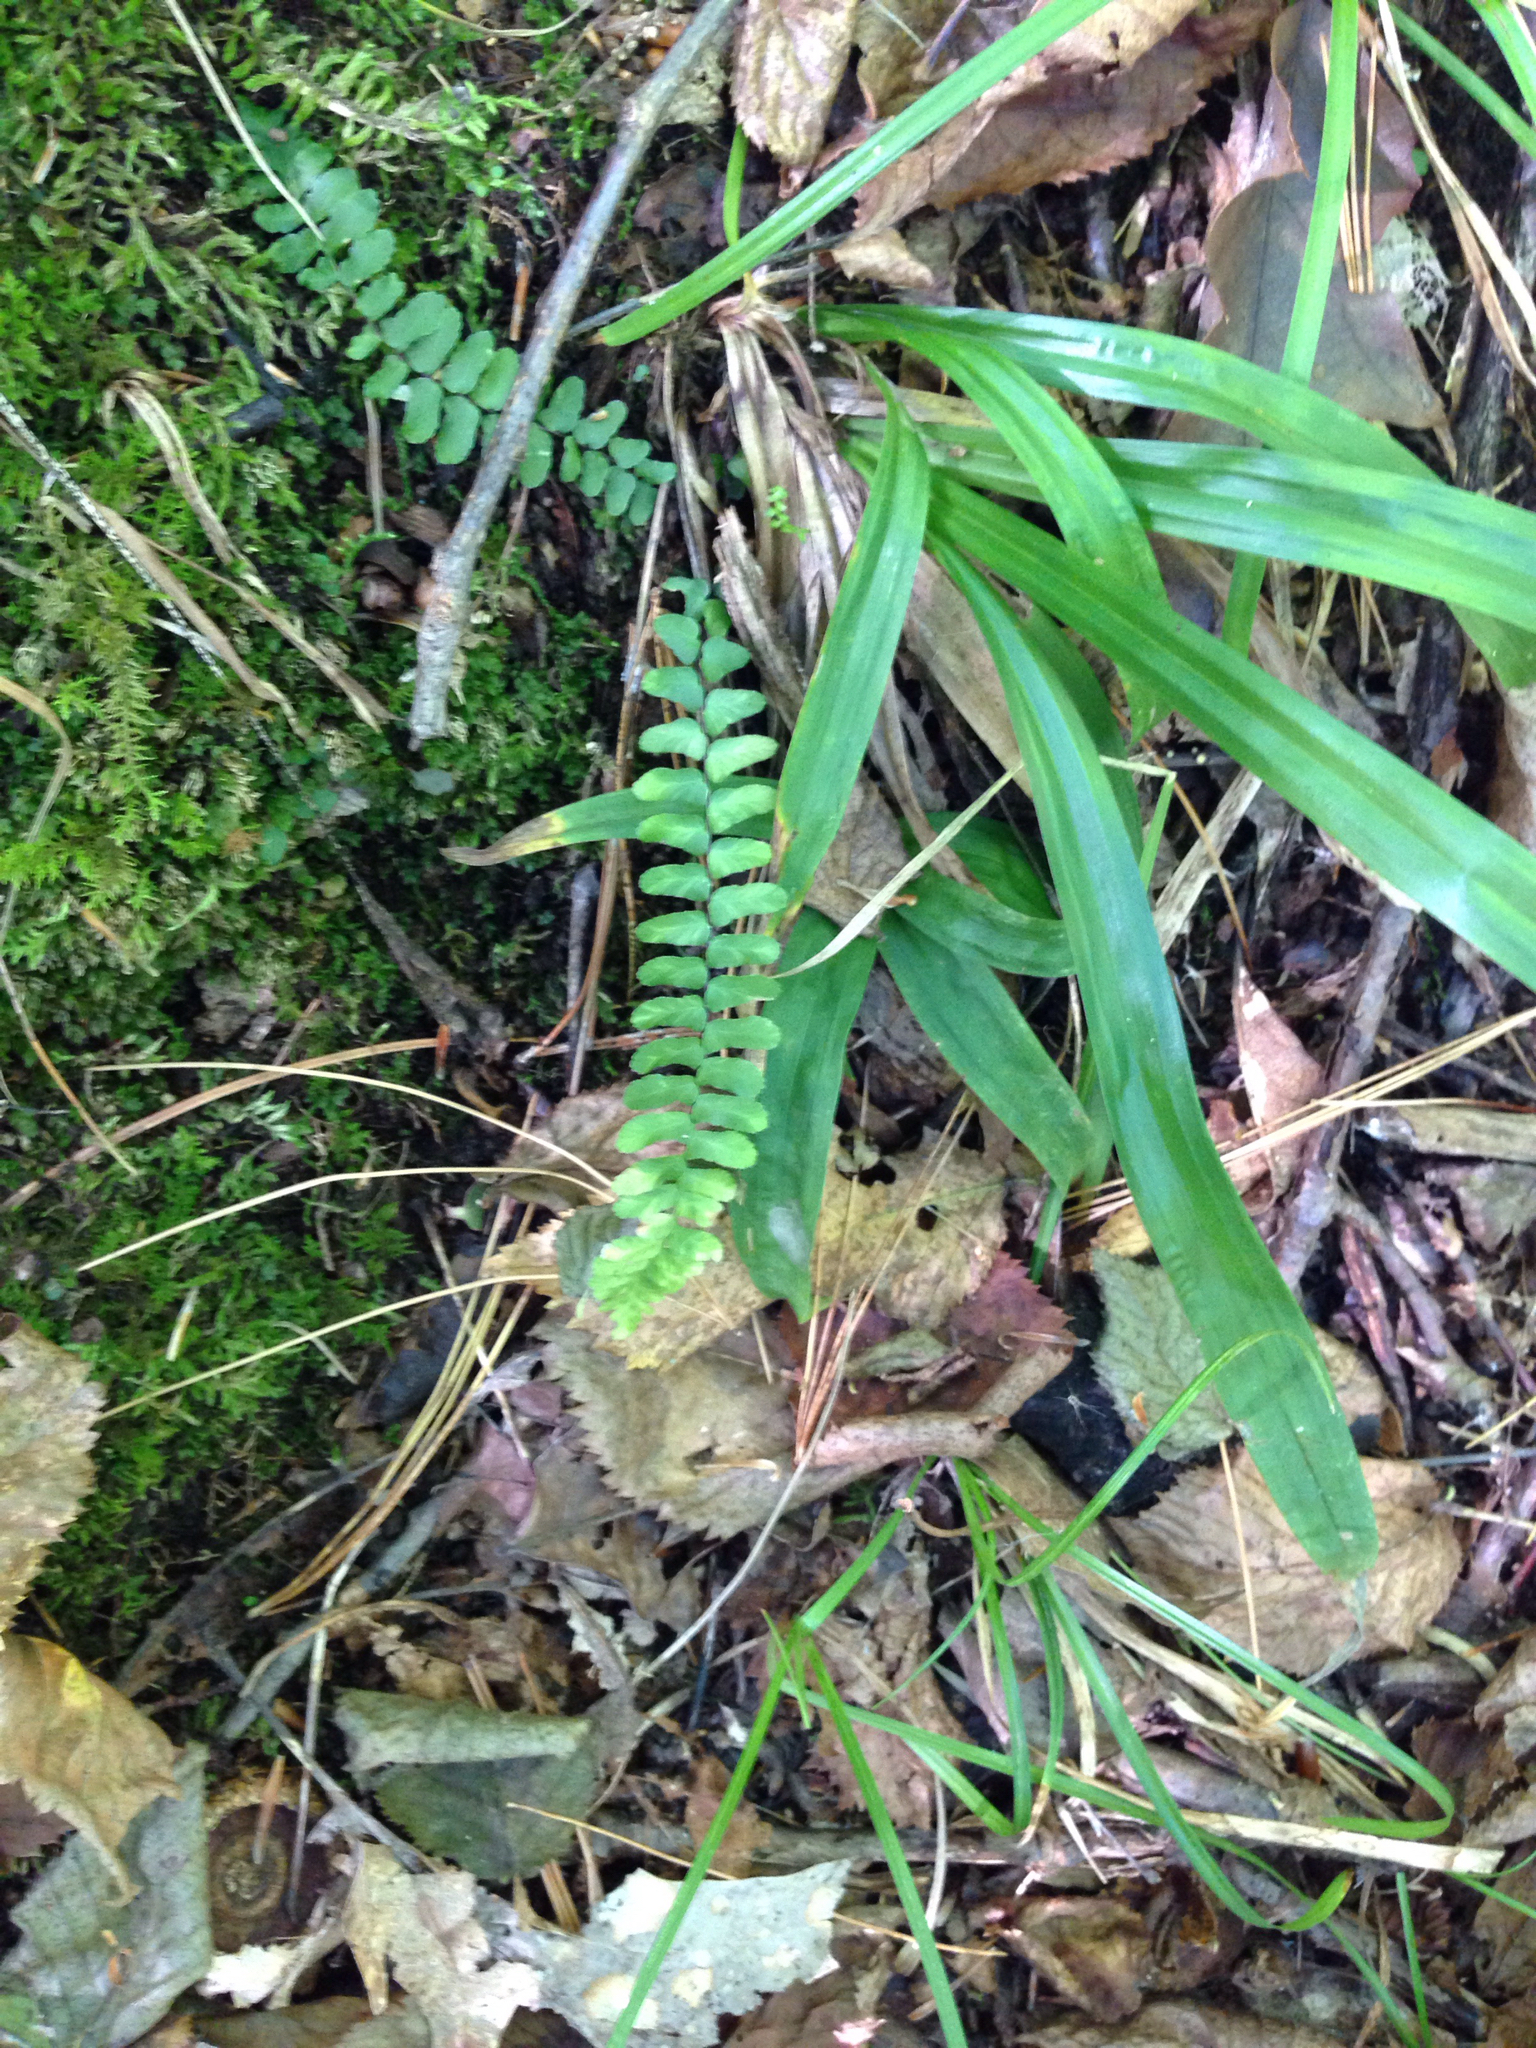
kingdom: Plantae
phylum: Tracheophyta
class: Polypodiopsida
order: Polypodiales
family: Aspleniaceae
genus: Asplenium
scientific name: Asplenium platyneuron
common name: Ebony spleenwort
